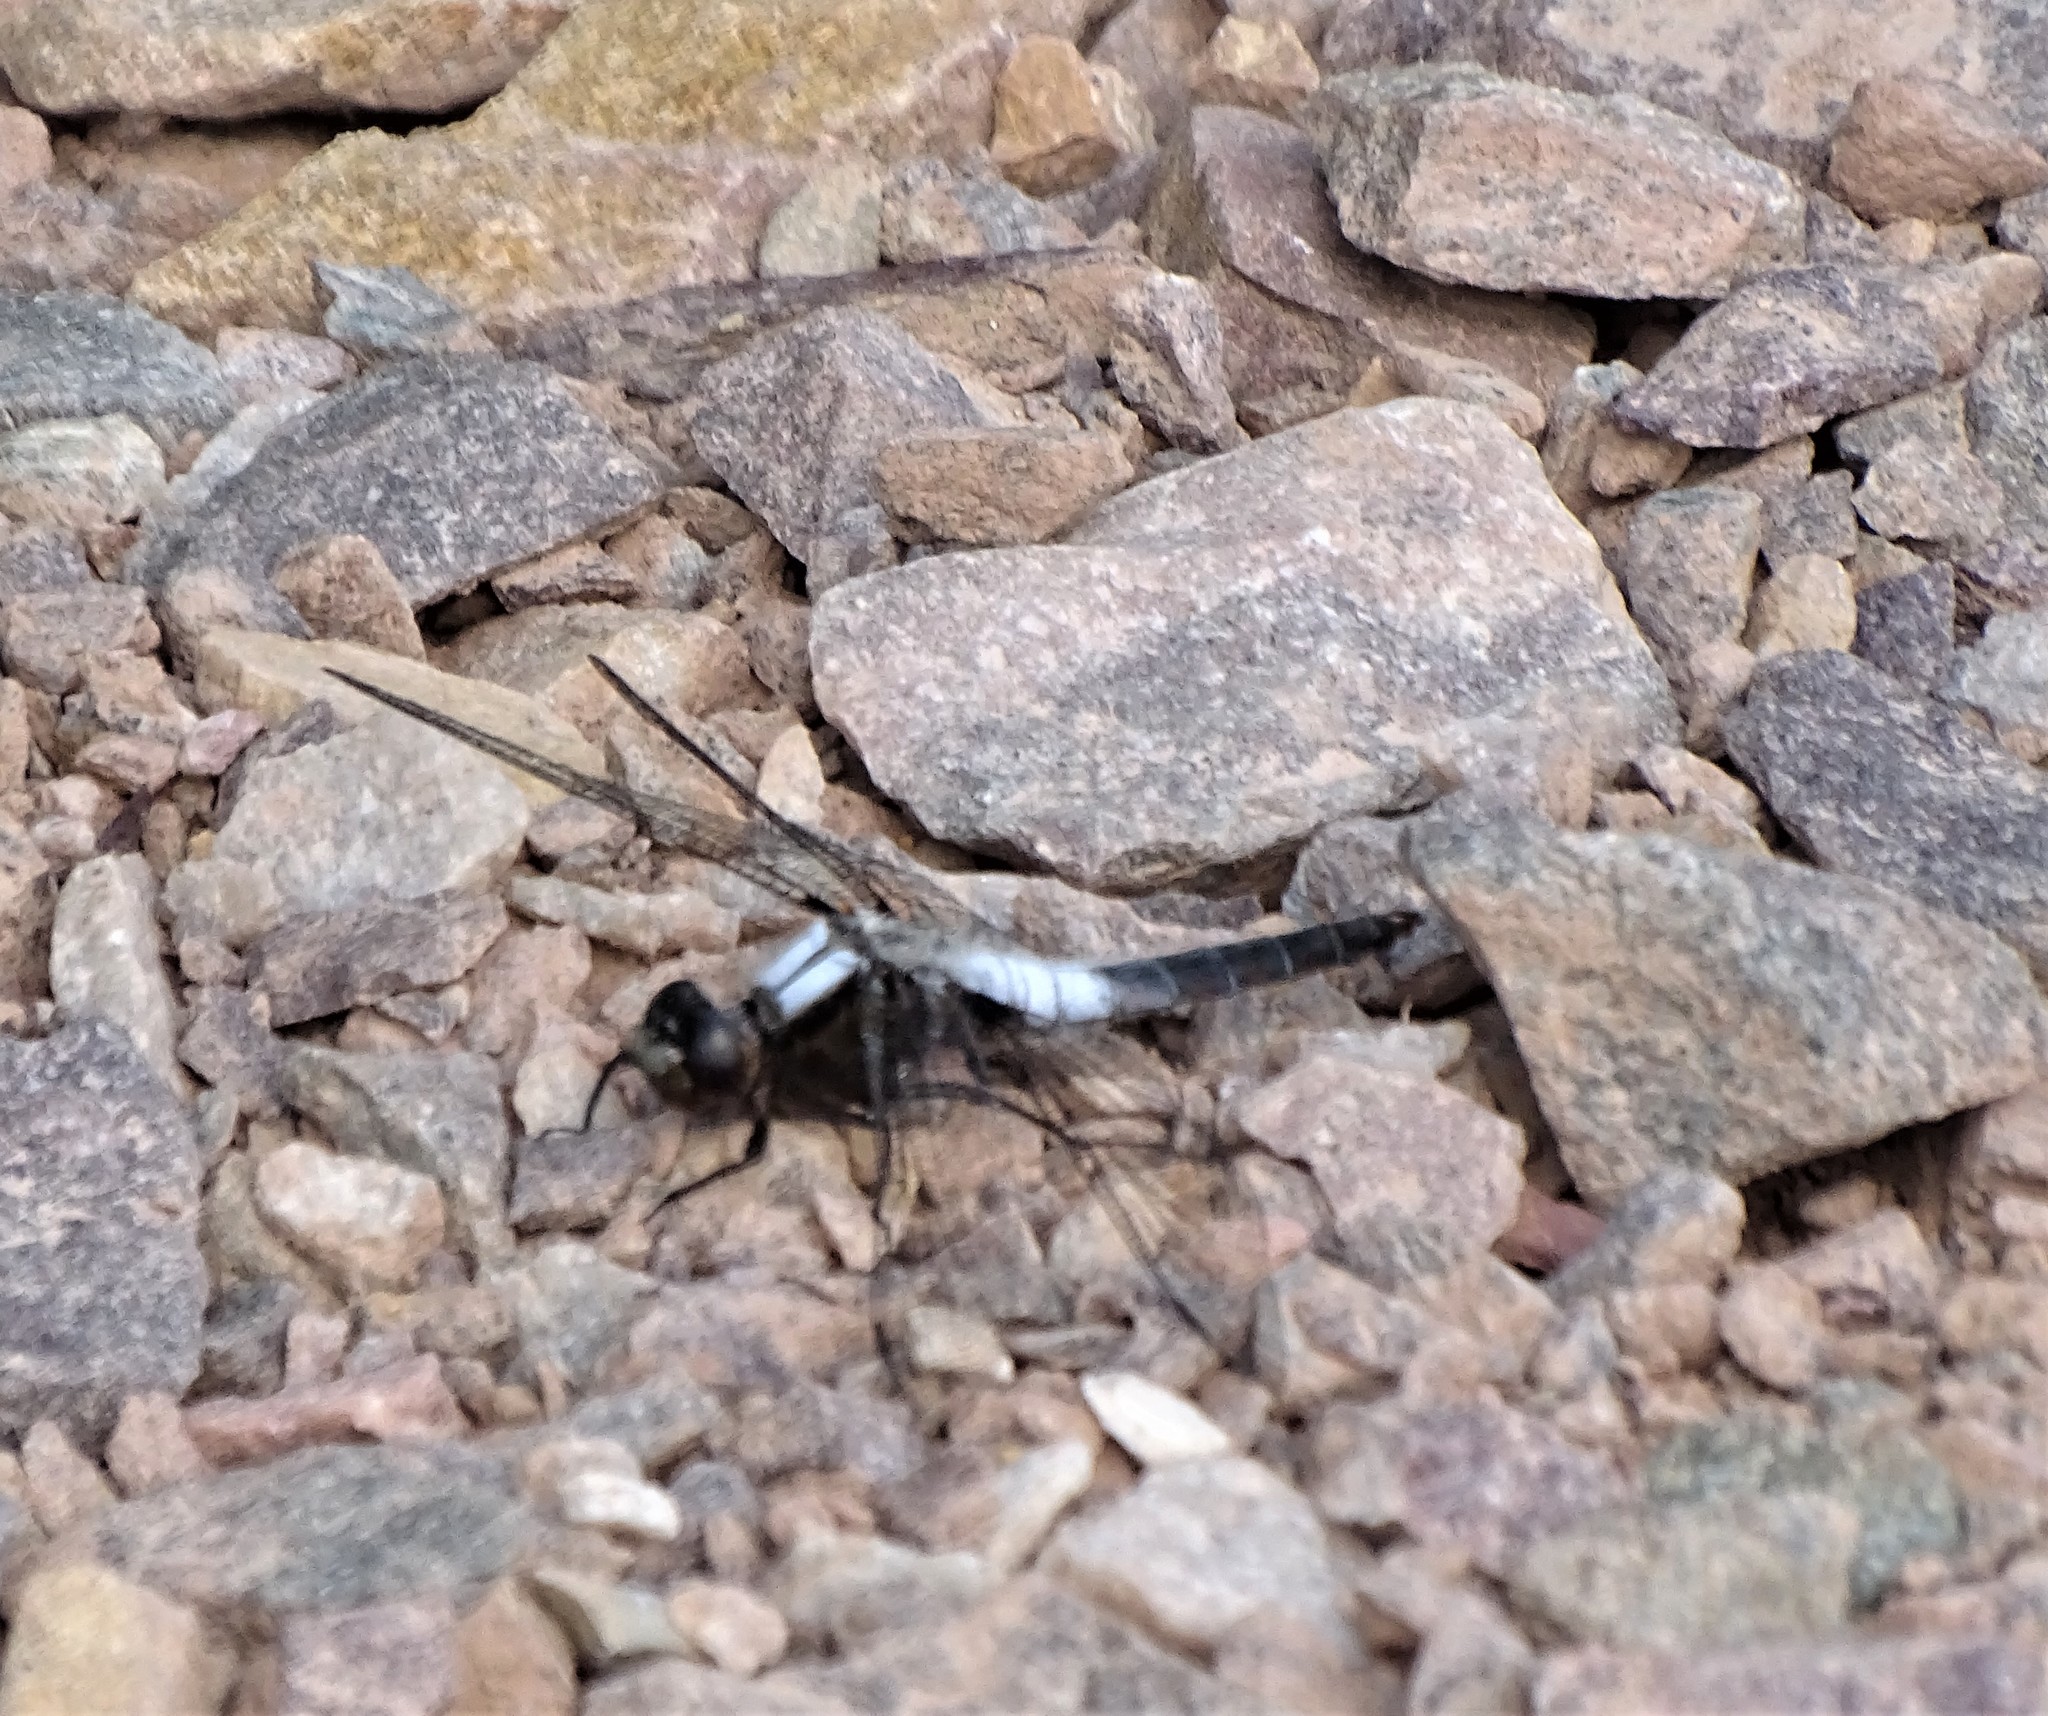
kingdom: Animalia
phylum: Arthropoda
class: Insecta
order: Odonata
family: Libellulidae
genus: Ladona
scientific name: Ladona julia
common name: Chalk-fronted corporal
